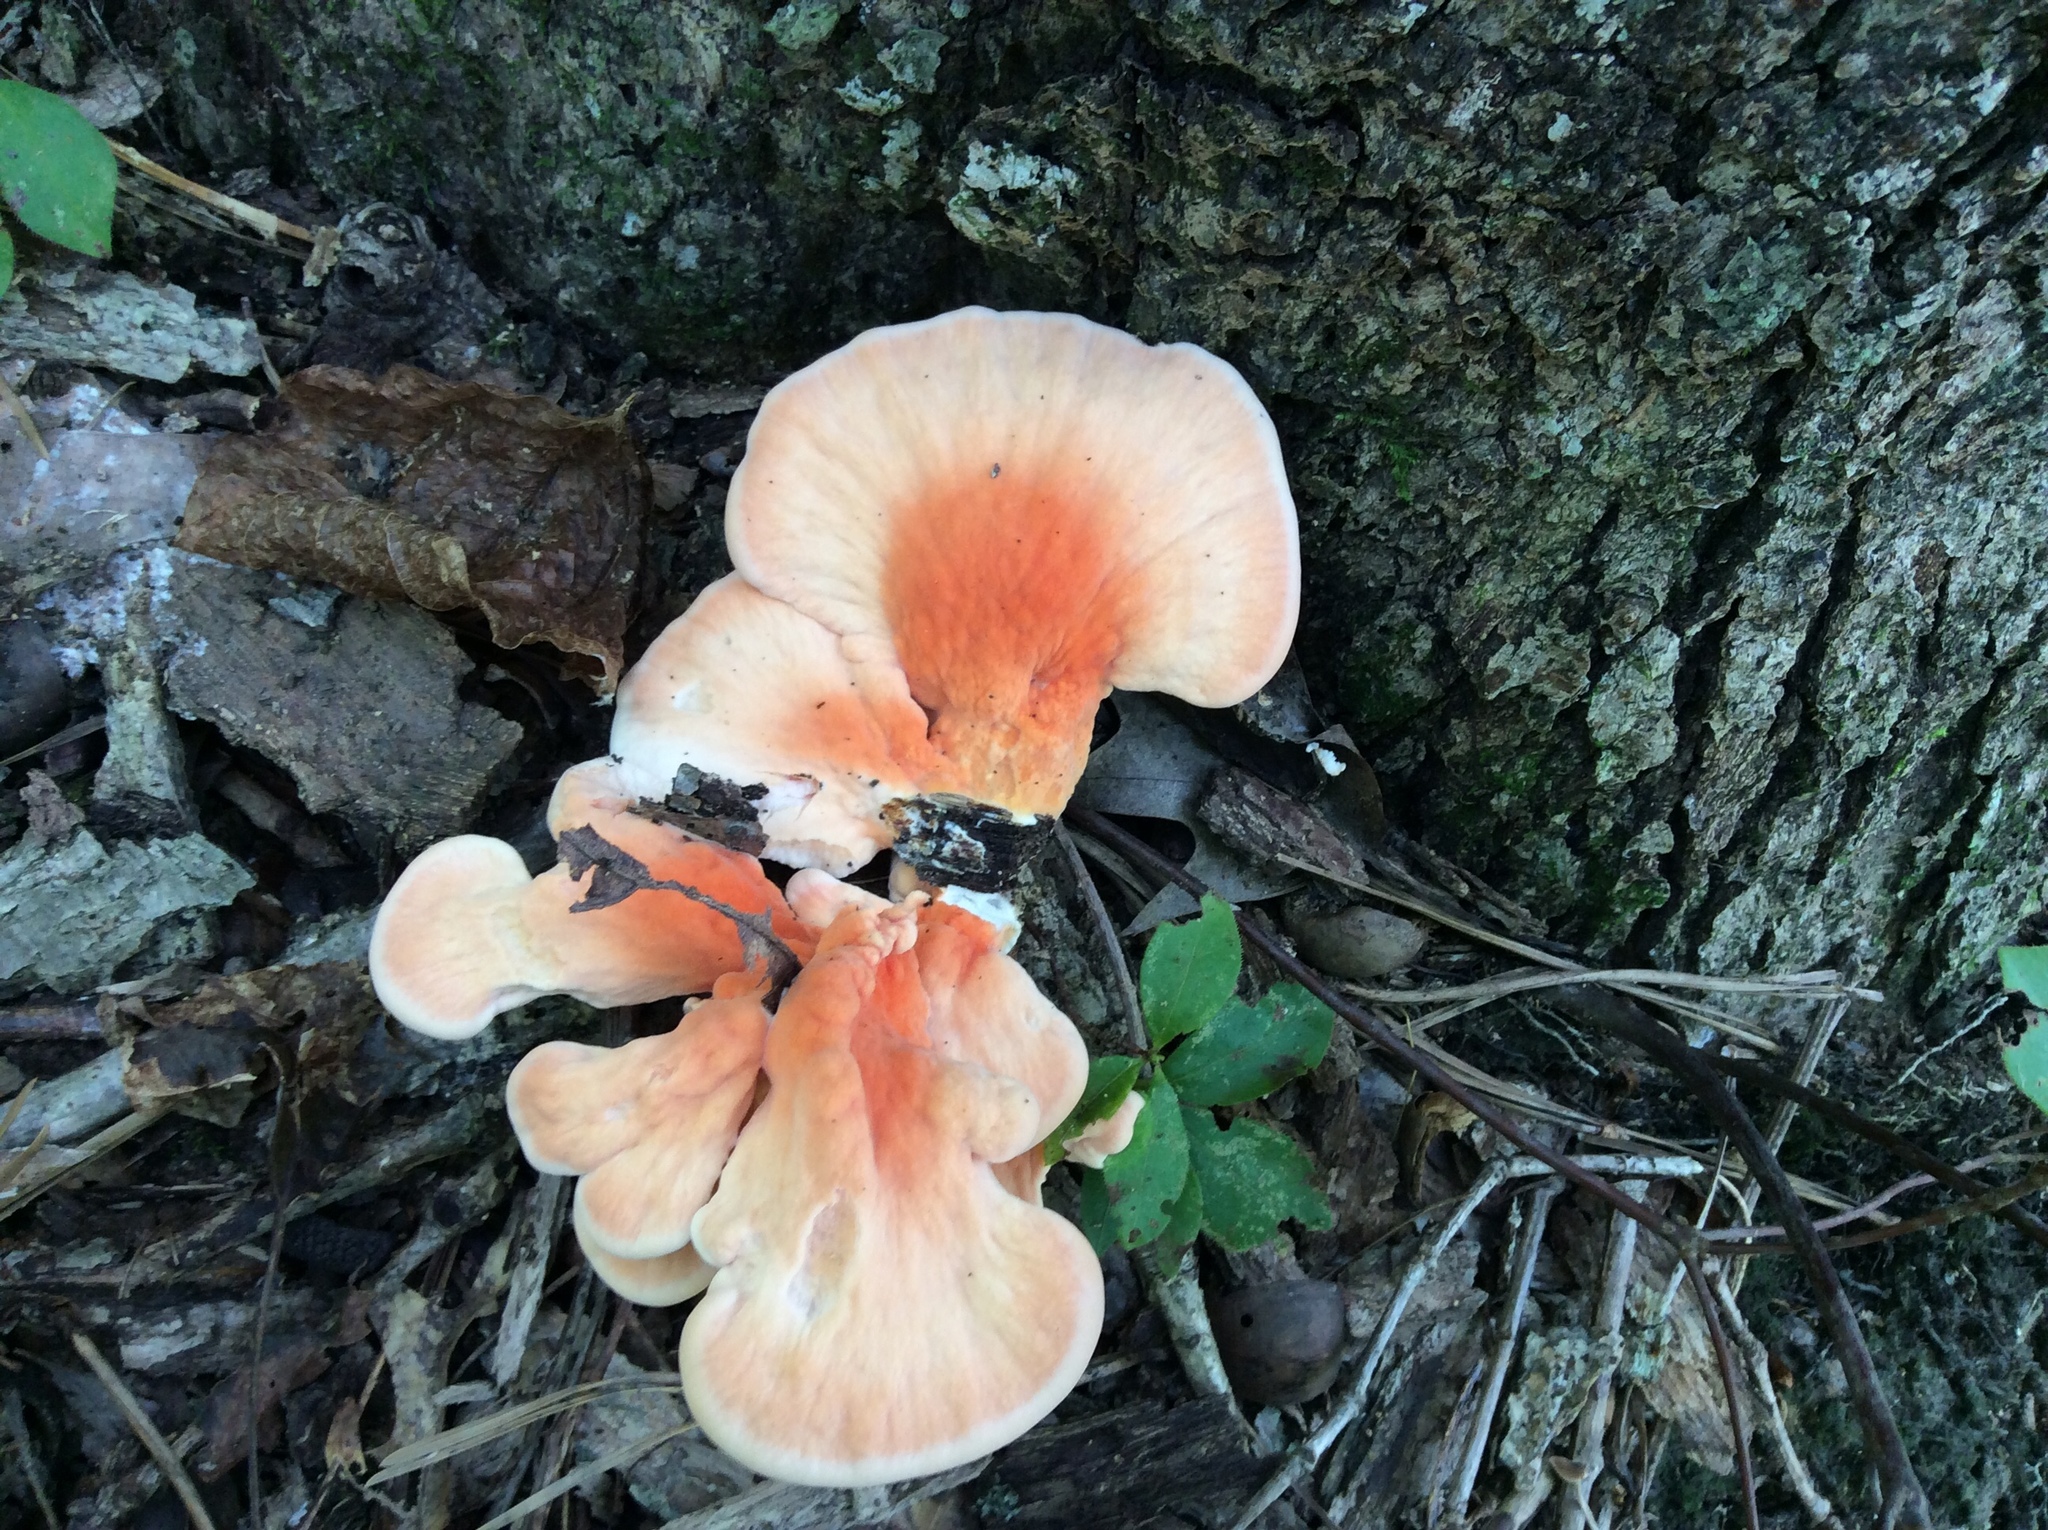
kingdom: Fungi
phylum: Basidiomycota
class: Agaricomycetes
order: Polyporales
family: Laetiporaceae
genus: Laetiporus
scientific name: Laetiporus sulphureus
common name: Chicken of the woods
